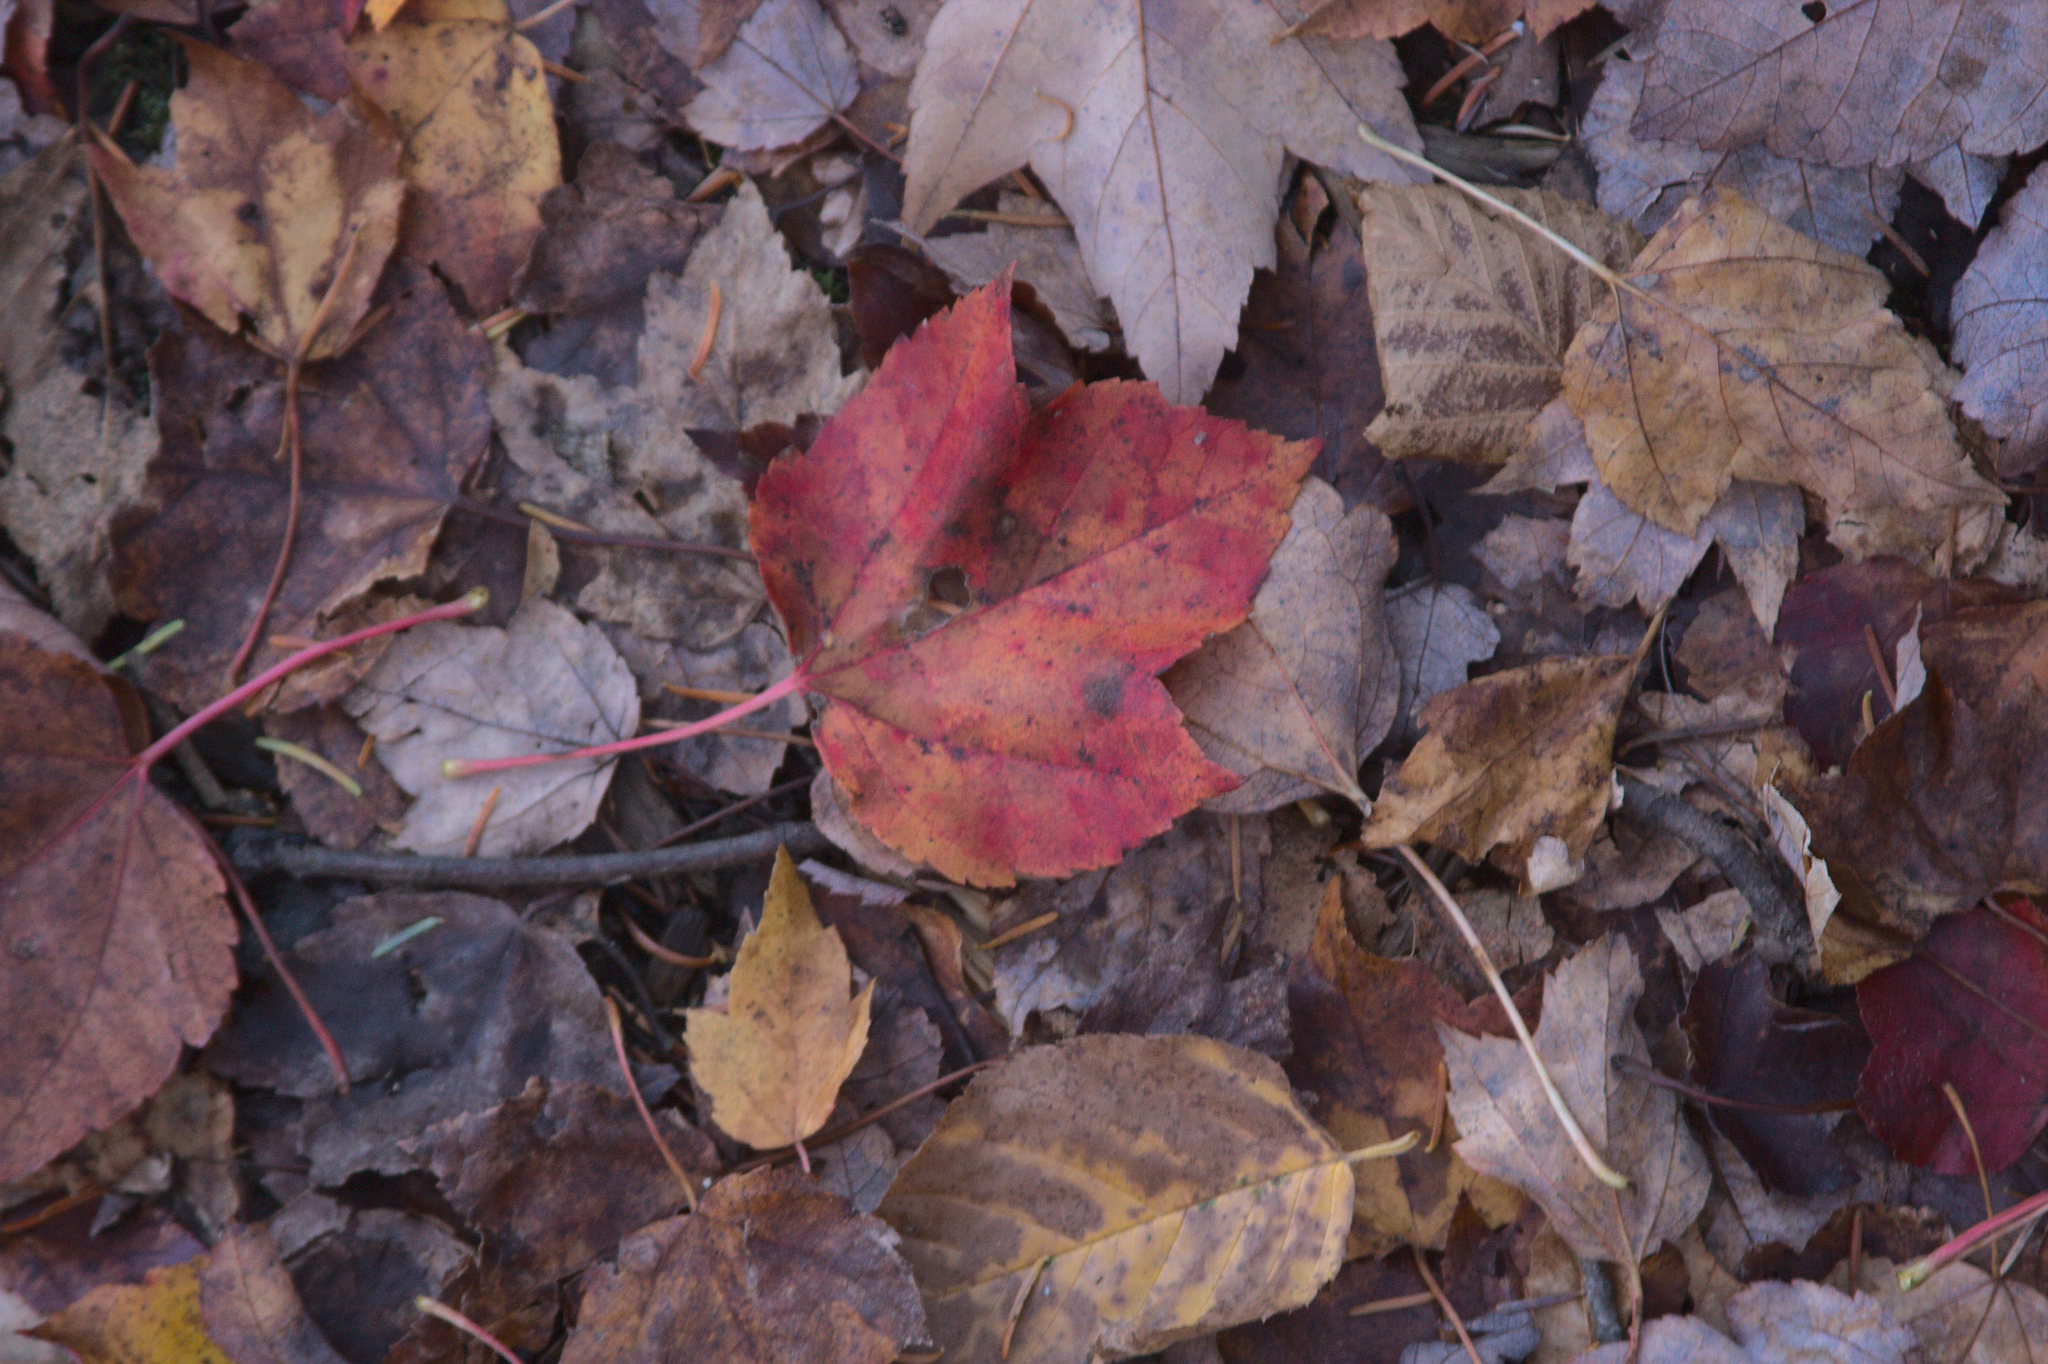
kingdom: Plantae
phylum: Tracheophyta
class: Magnoliopsida
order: Sapindales
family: Sapindaceae
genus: Acer
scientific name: Acer rubrum
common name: Red maple
